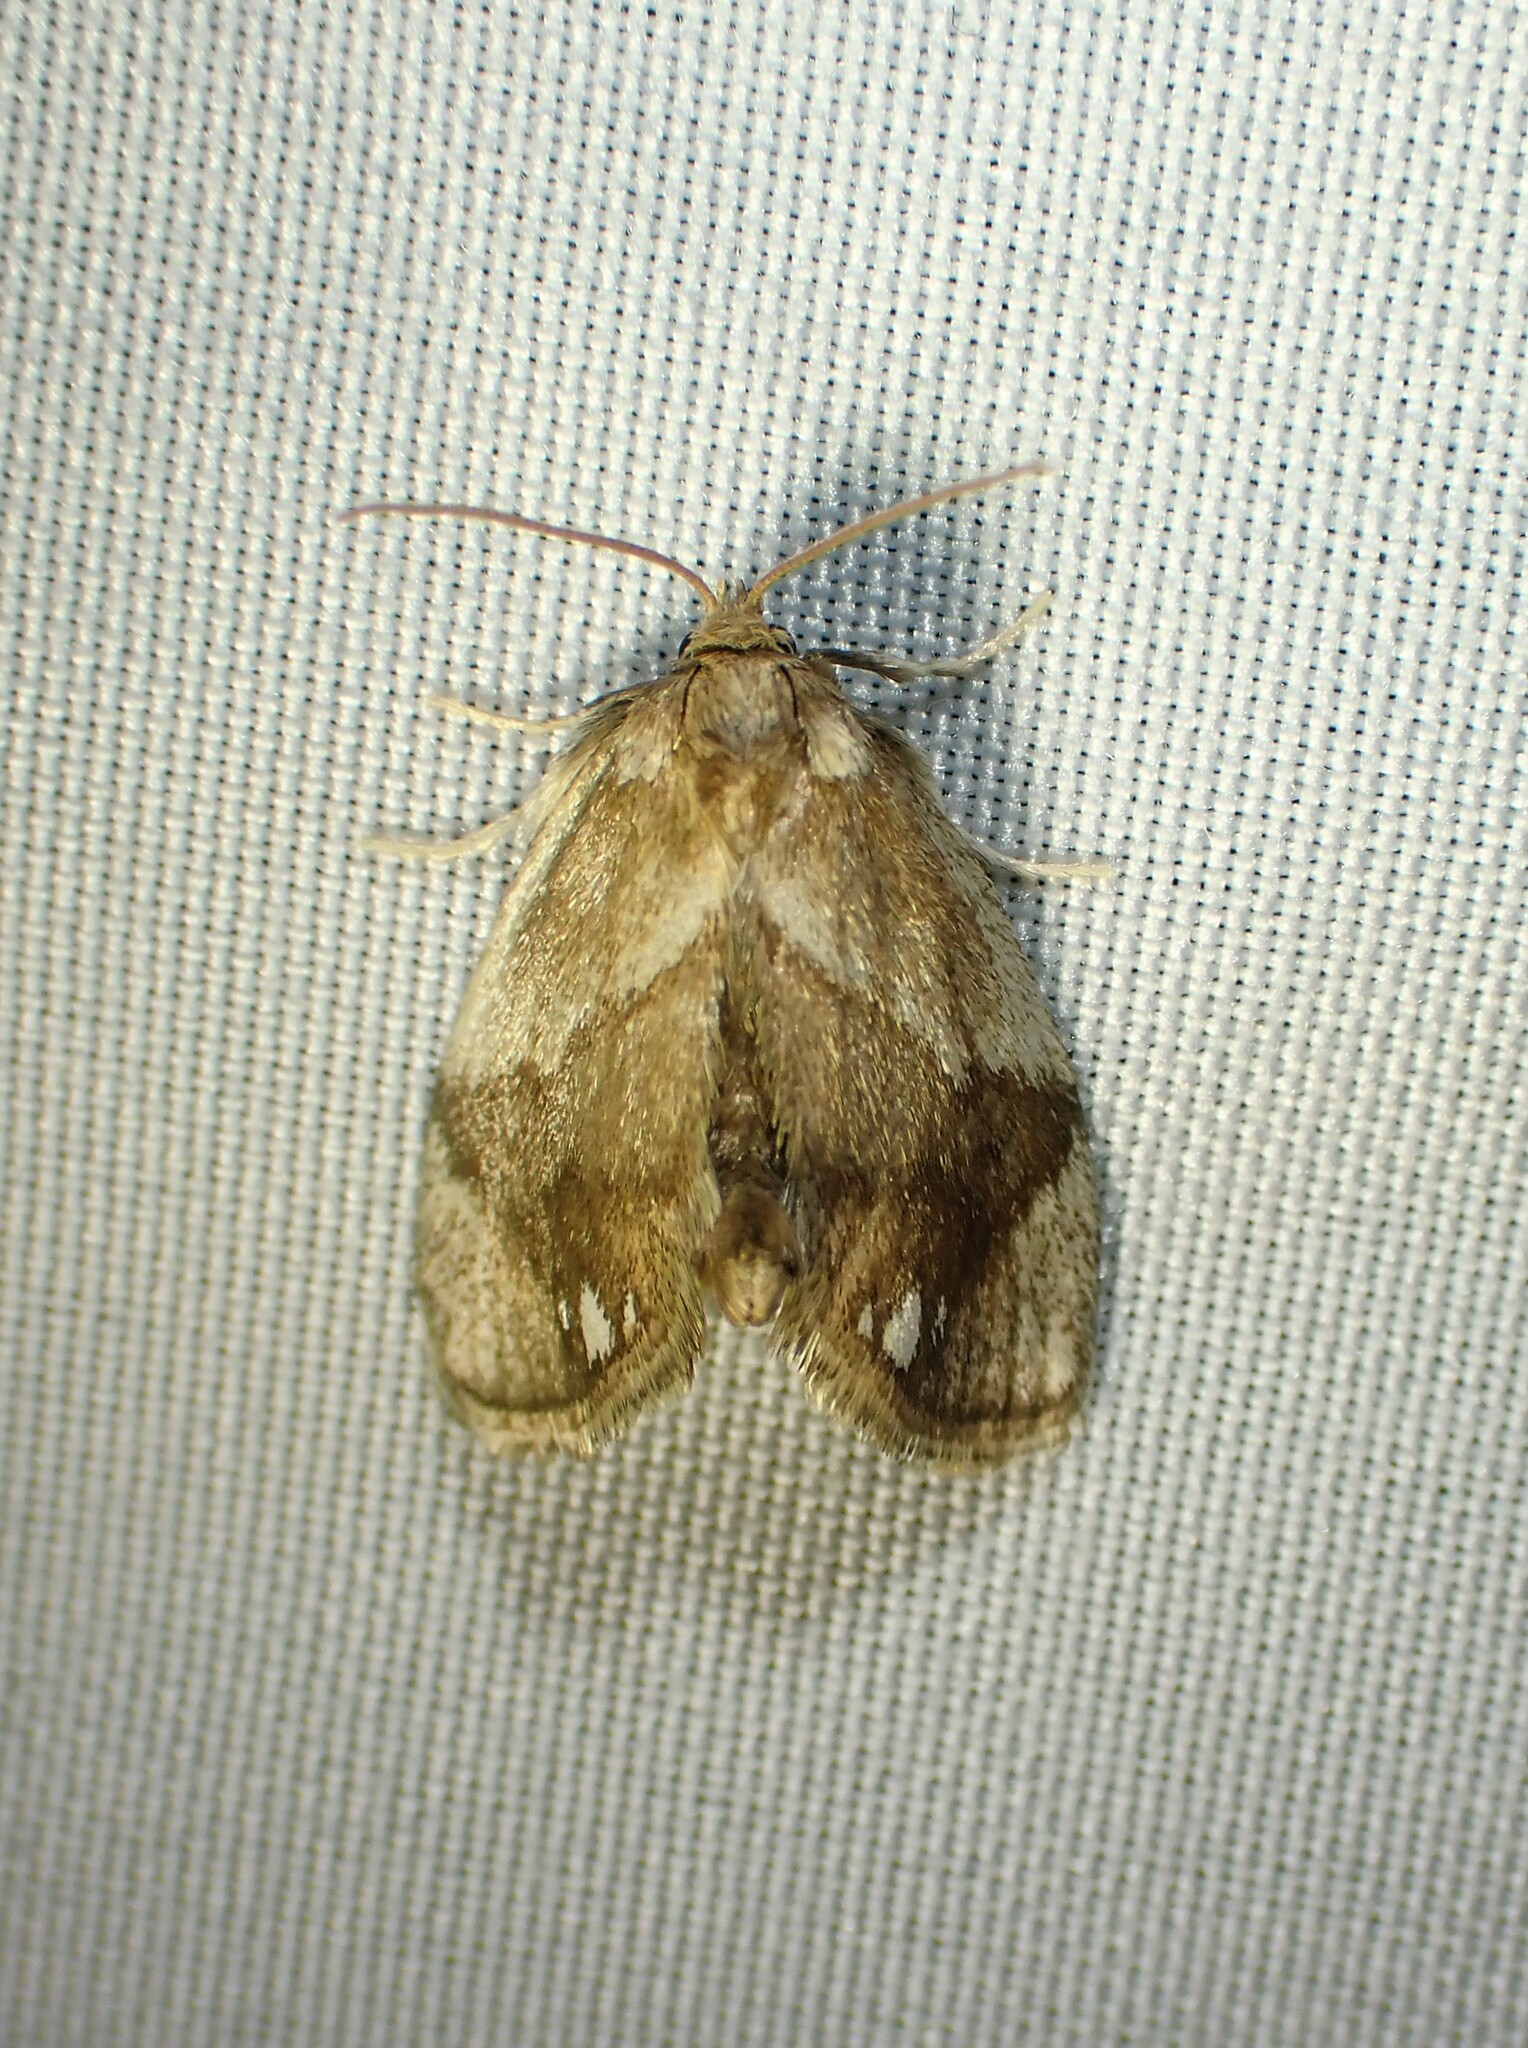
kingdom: Animalia
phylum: Arthropoda
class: Insecta
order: Lepidoptera
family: Limacodidae
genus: Packardia
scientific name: Packardia geminata
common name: Jeweled tailed slug moth
